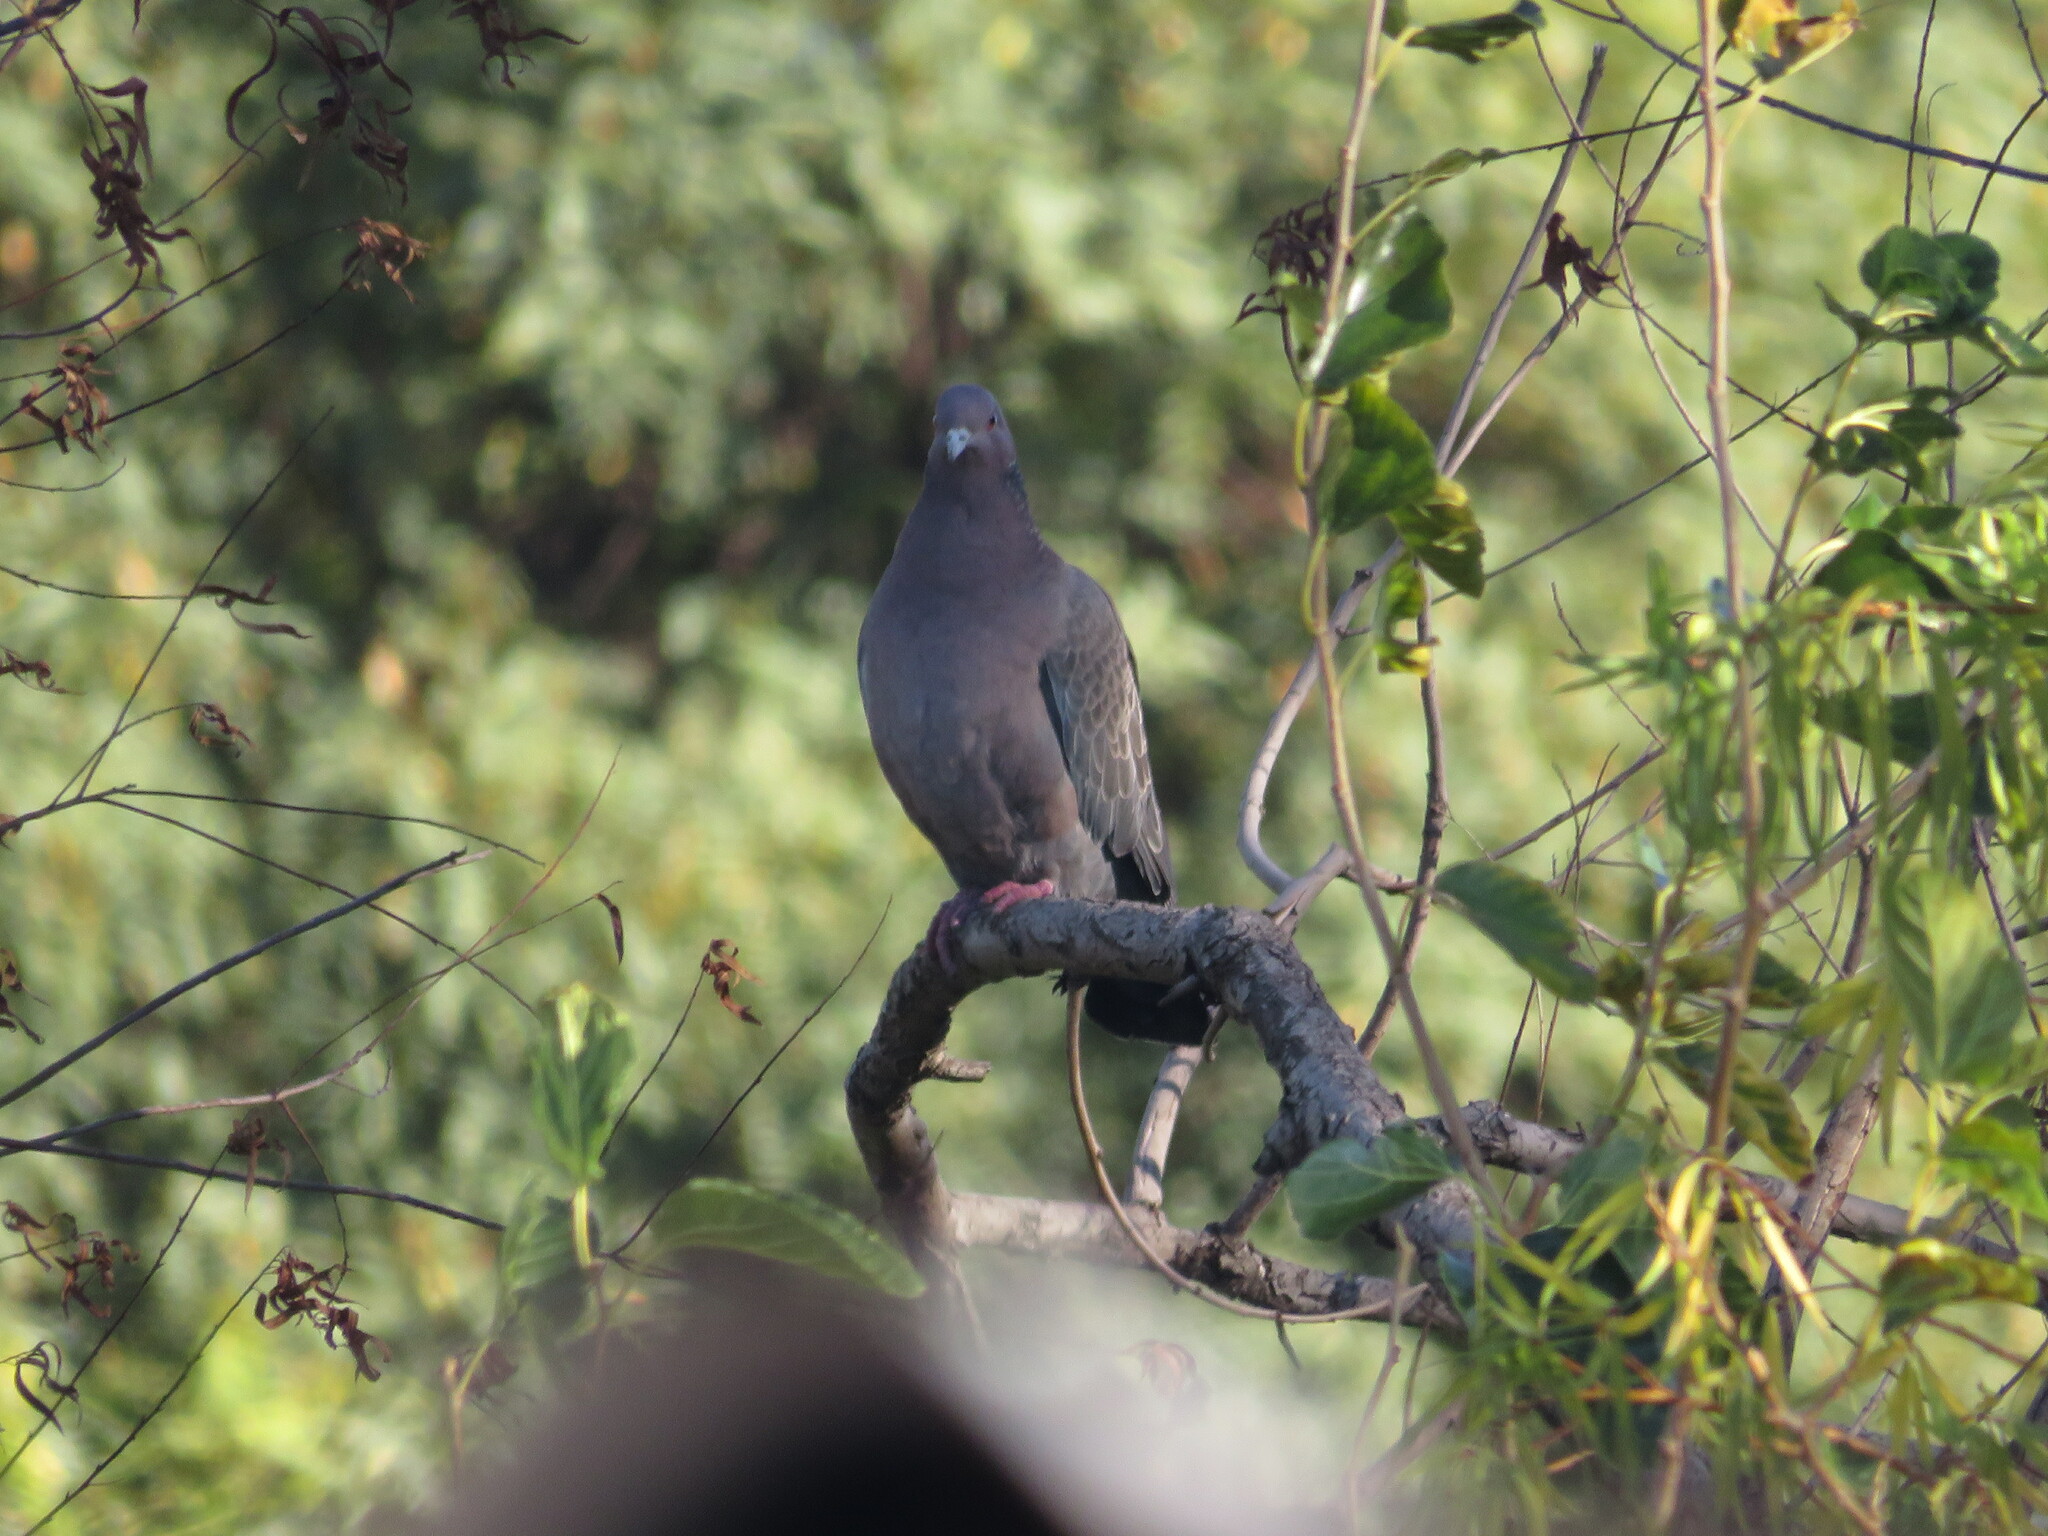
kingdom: Animalia
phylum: Chordata
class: Aves
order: Columbiformes
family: Columbidae
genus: Patagioenas
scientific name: Patagioenas picazuro
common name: Picazuro pigeon
